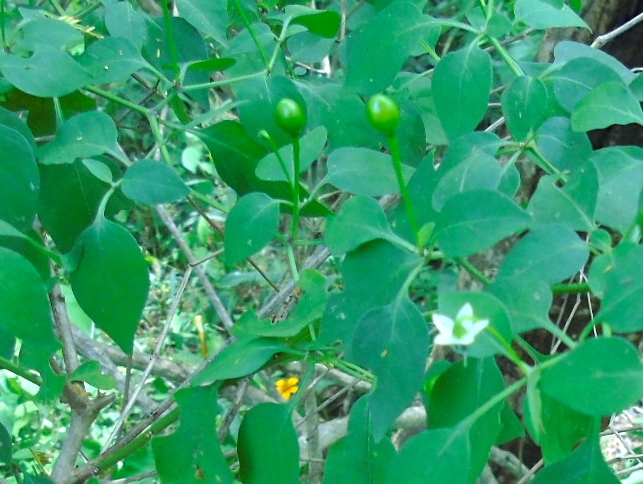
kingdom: Plantae
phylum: Tracheophyta
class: Magnoliopsida
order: Solanales
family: Solanaceae
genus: Capsicum
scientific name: Capsicum annuum
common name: Sweet pepper
